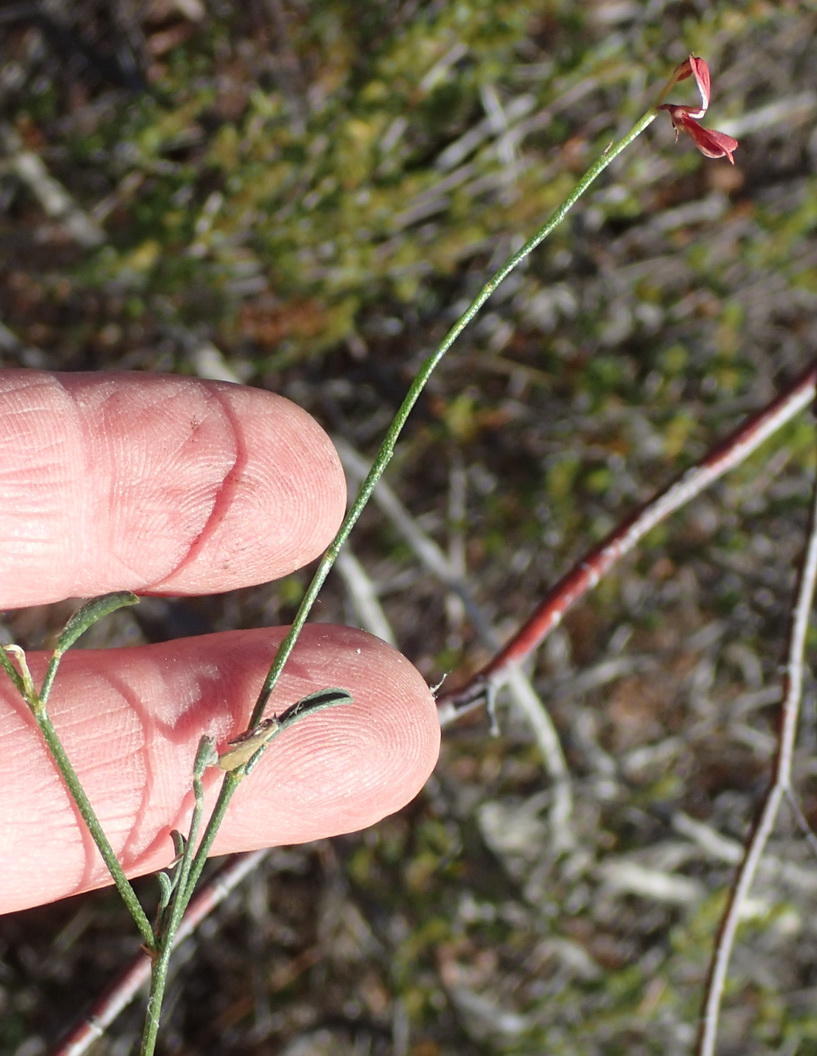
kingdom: Plantae
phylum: Tracheophyta
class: Magnoliopsida
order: Fabales
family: Fabaceae
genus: Indigofera
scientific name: Indigofera leptocarpa
